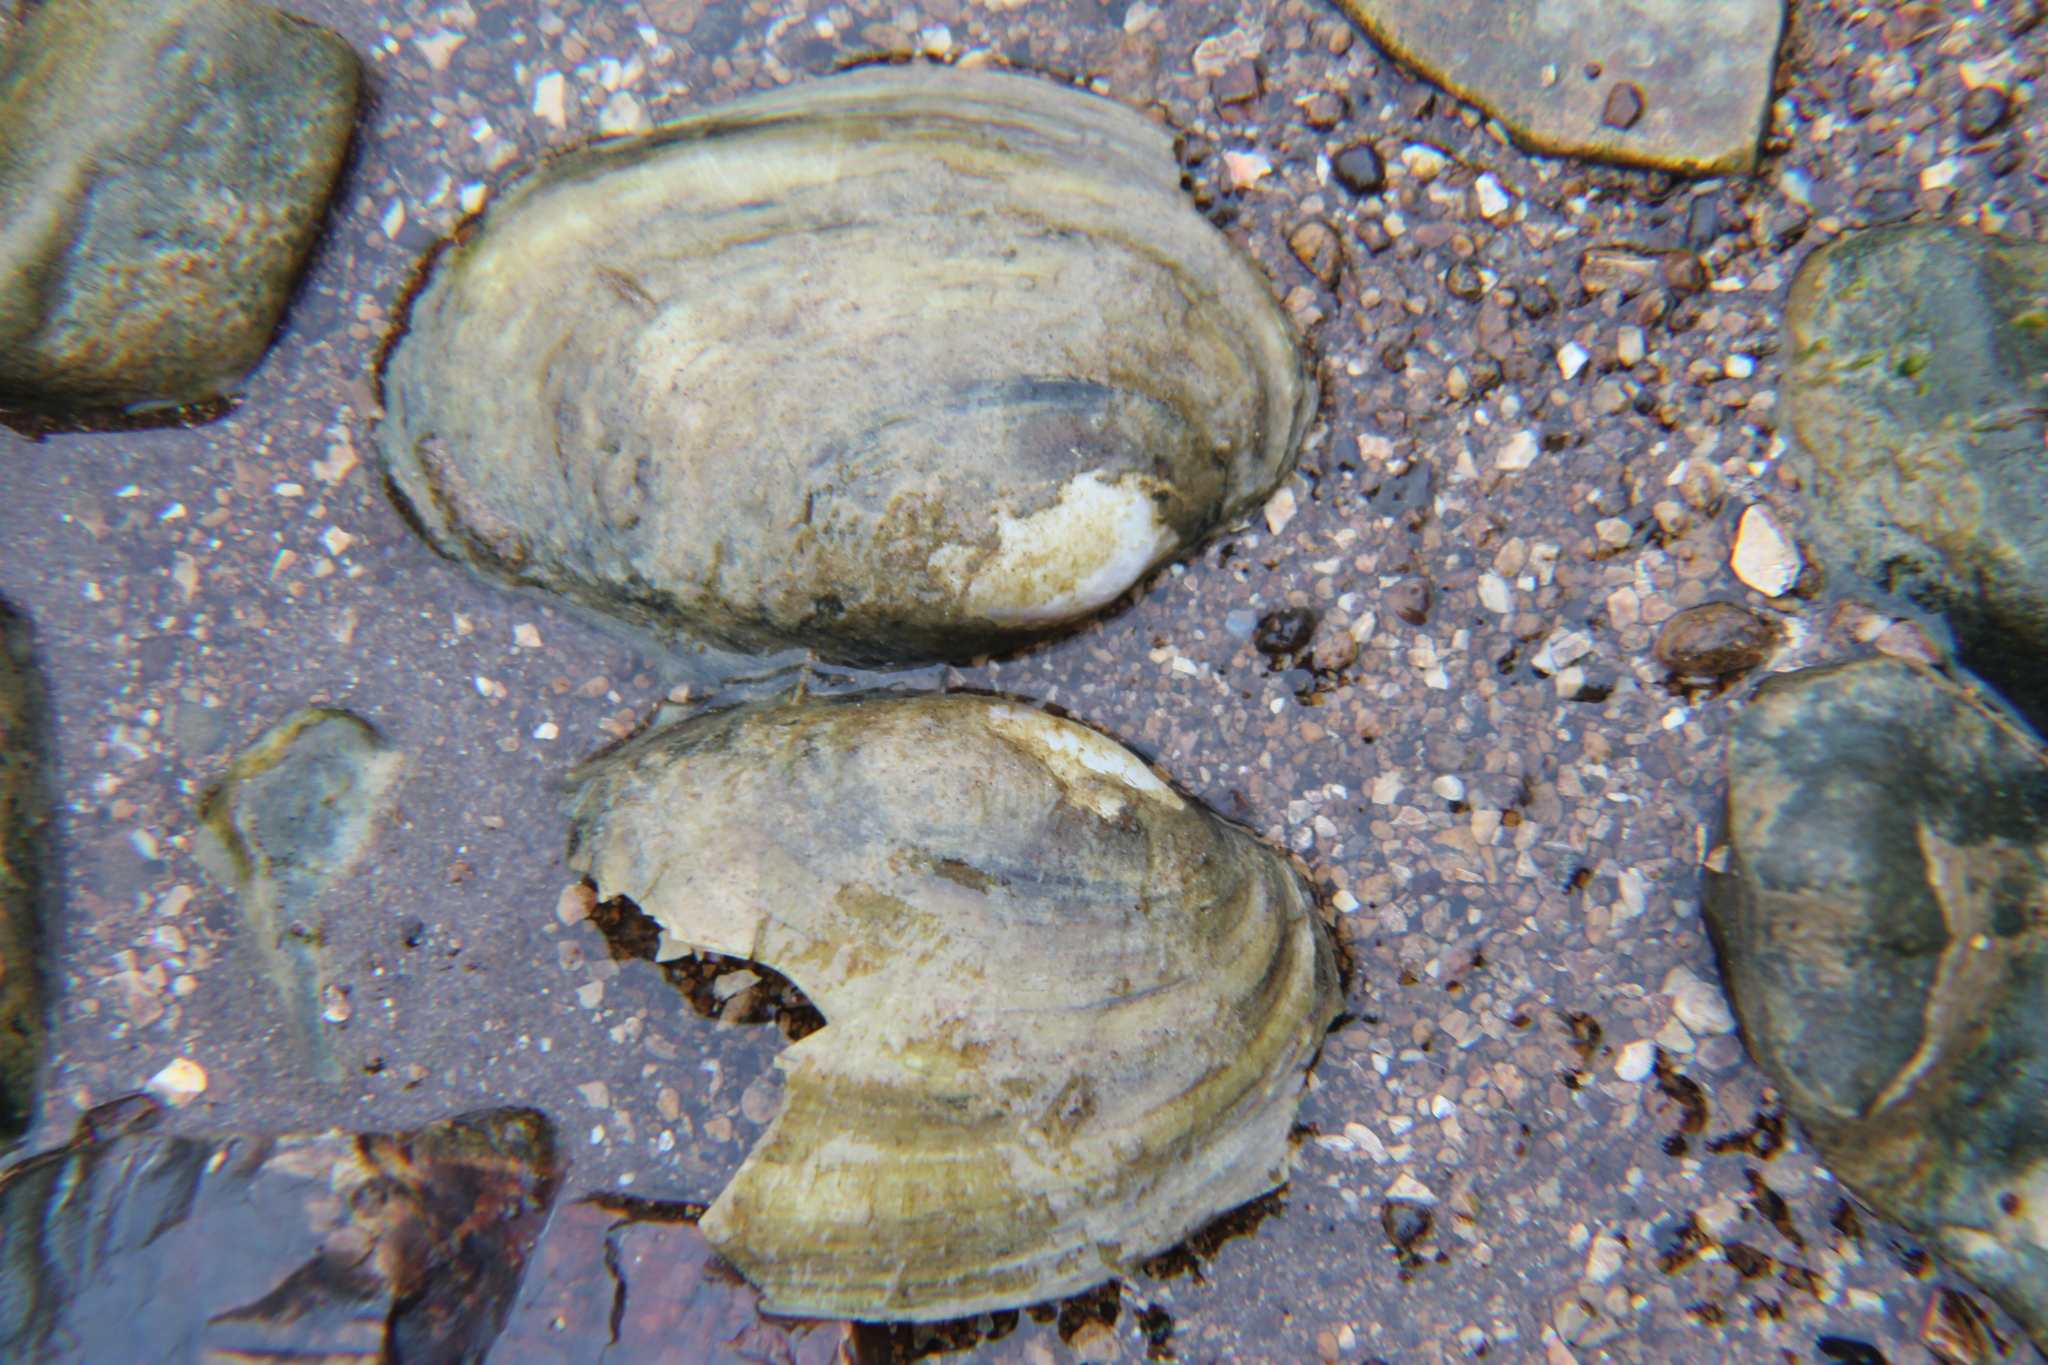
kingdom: Animalia
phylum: Mollusca
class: Bivalvia
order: Unionida
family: Unionidae
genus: Potamilus
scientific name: Potamilus fragilis
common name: Fragile papershell
